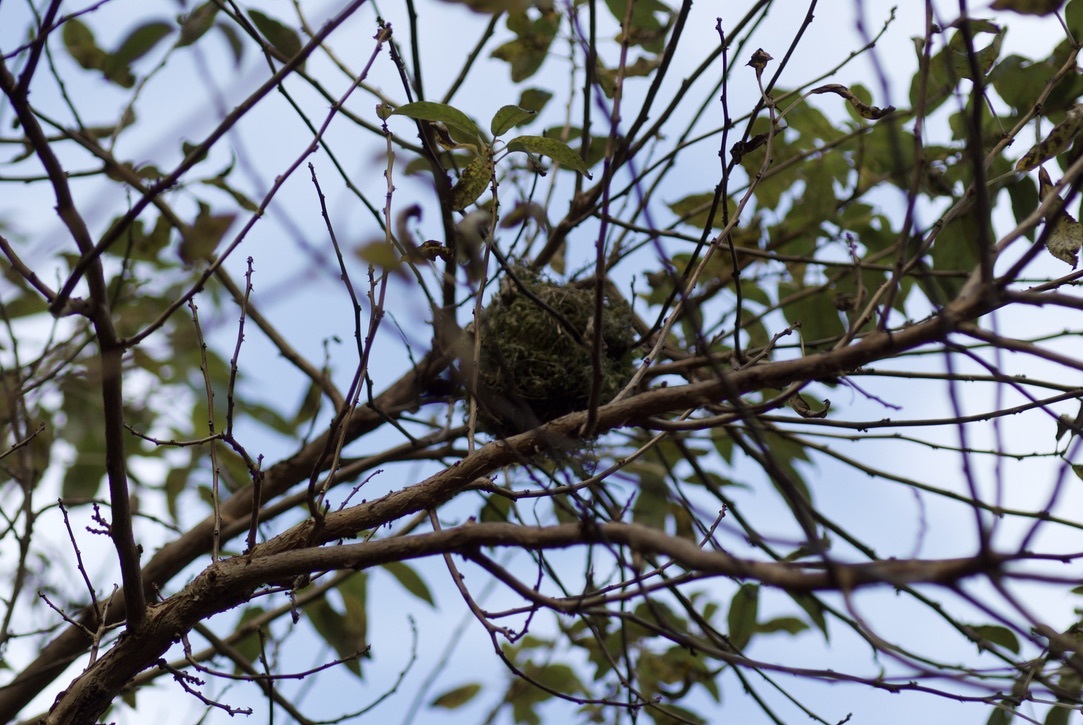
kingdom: Animalia
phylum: Chordata
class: Aves
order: Passeriformes
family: Rhipiduridae
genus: Rhipidura
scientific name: Rhipidura fuliginosa
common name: New zealand fantail
